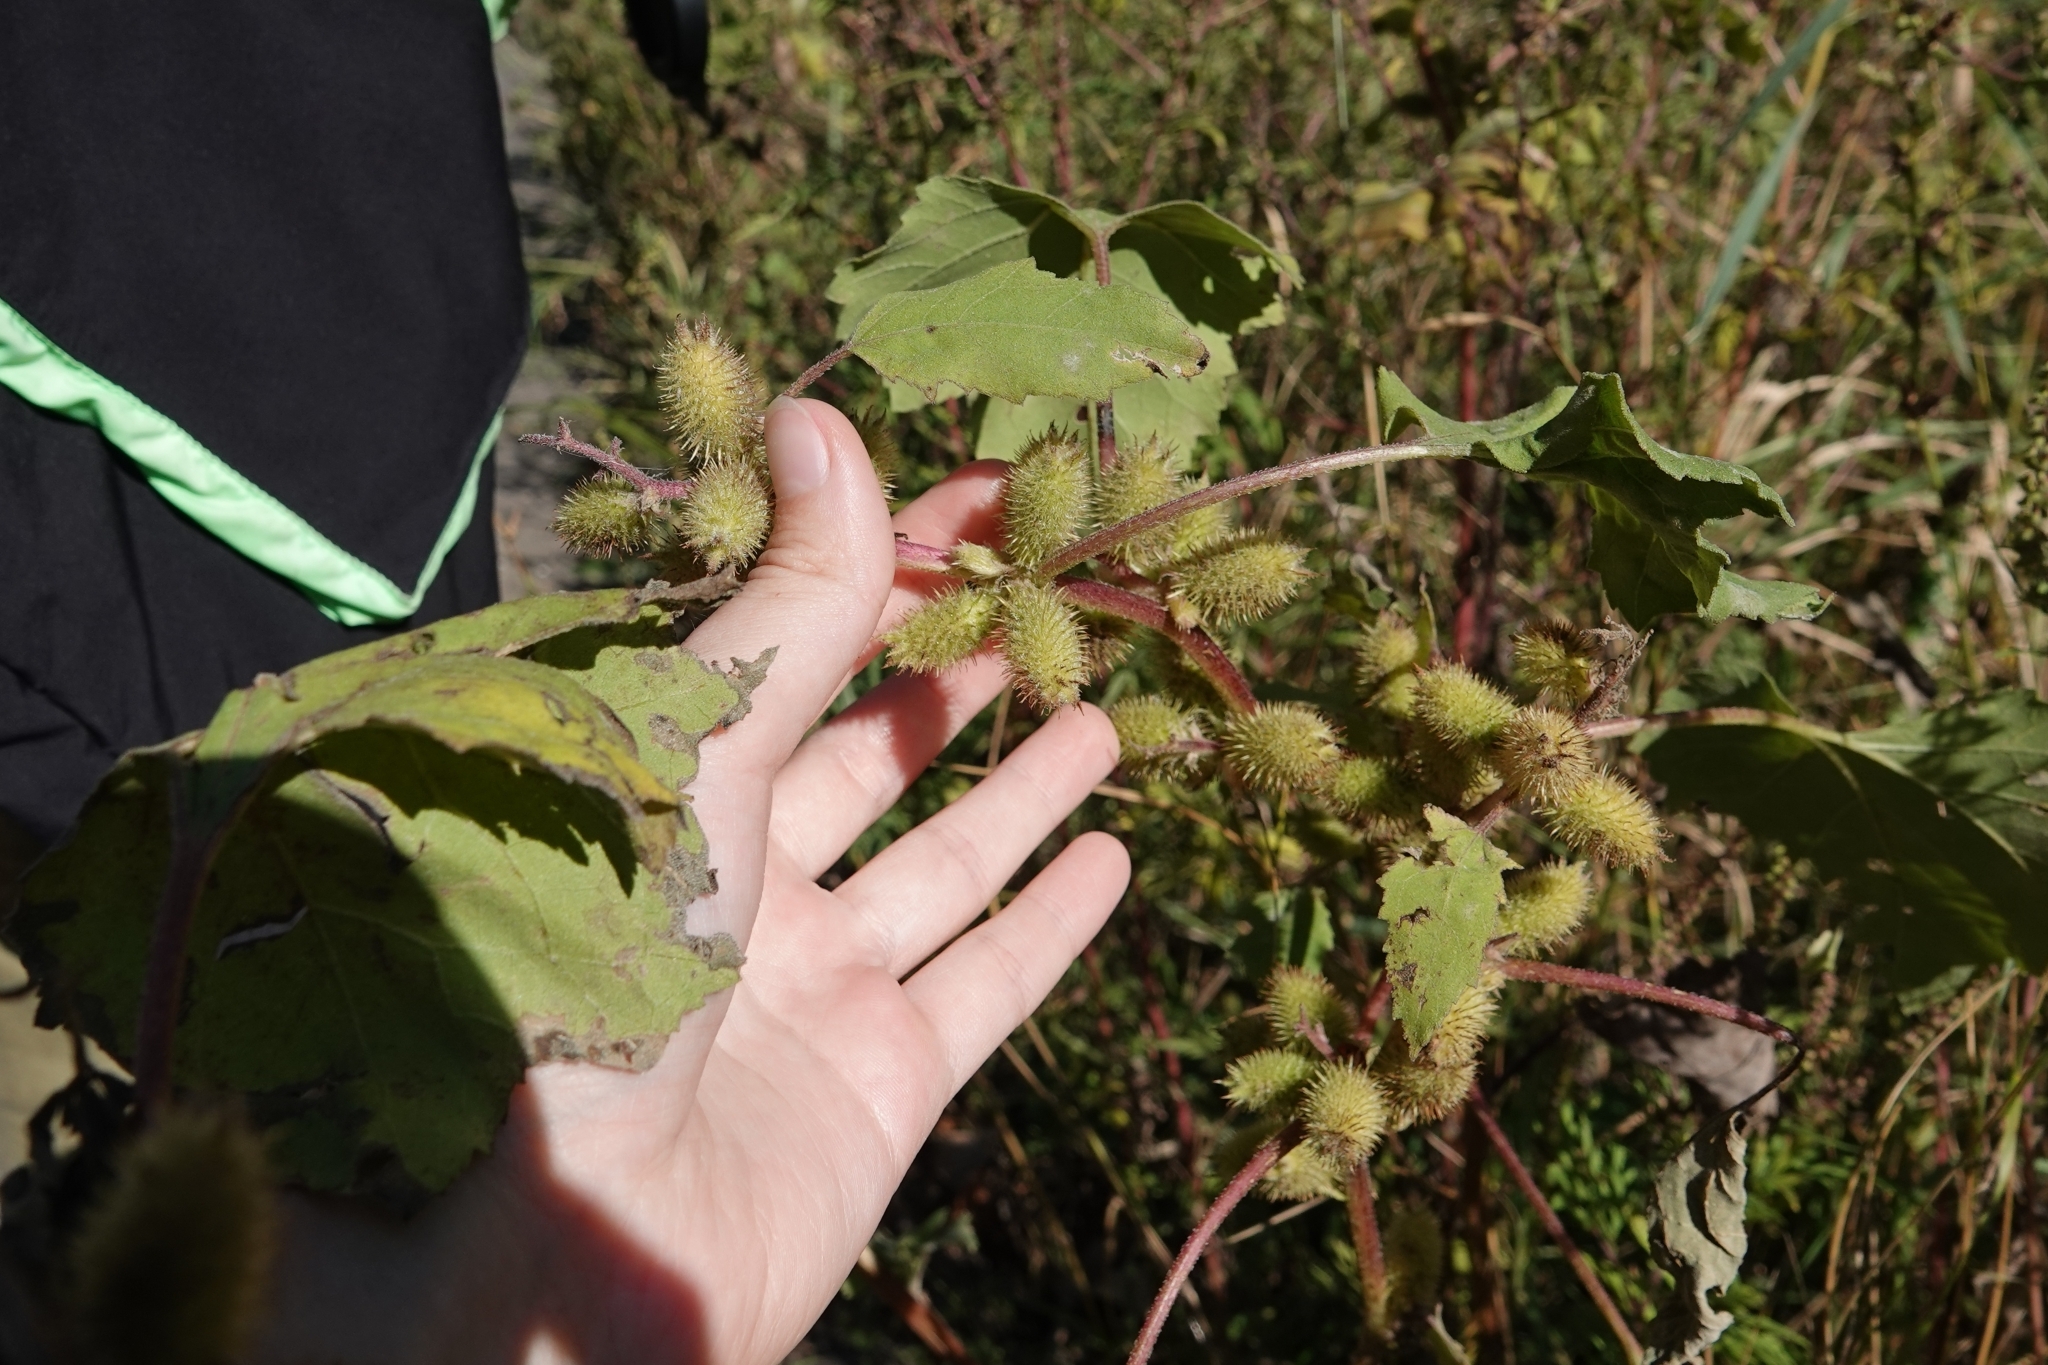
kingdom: Plantae
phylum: Tracheophyta
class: Magnoliopsida
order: Asterales
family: Asteraceae
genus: Xanthium
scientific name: Xanthium orientale
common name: Californian burr
